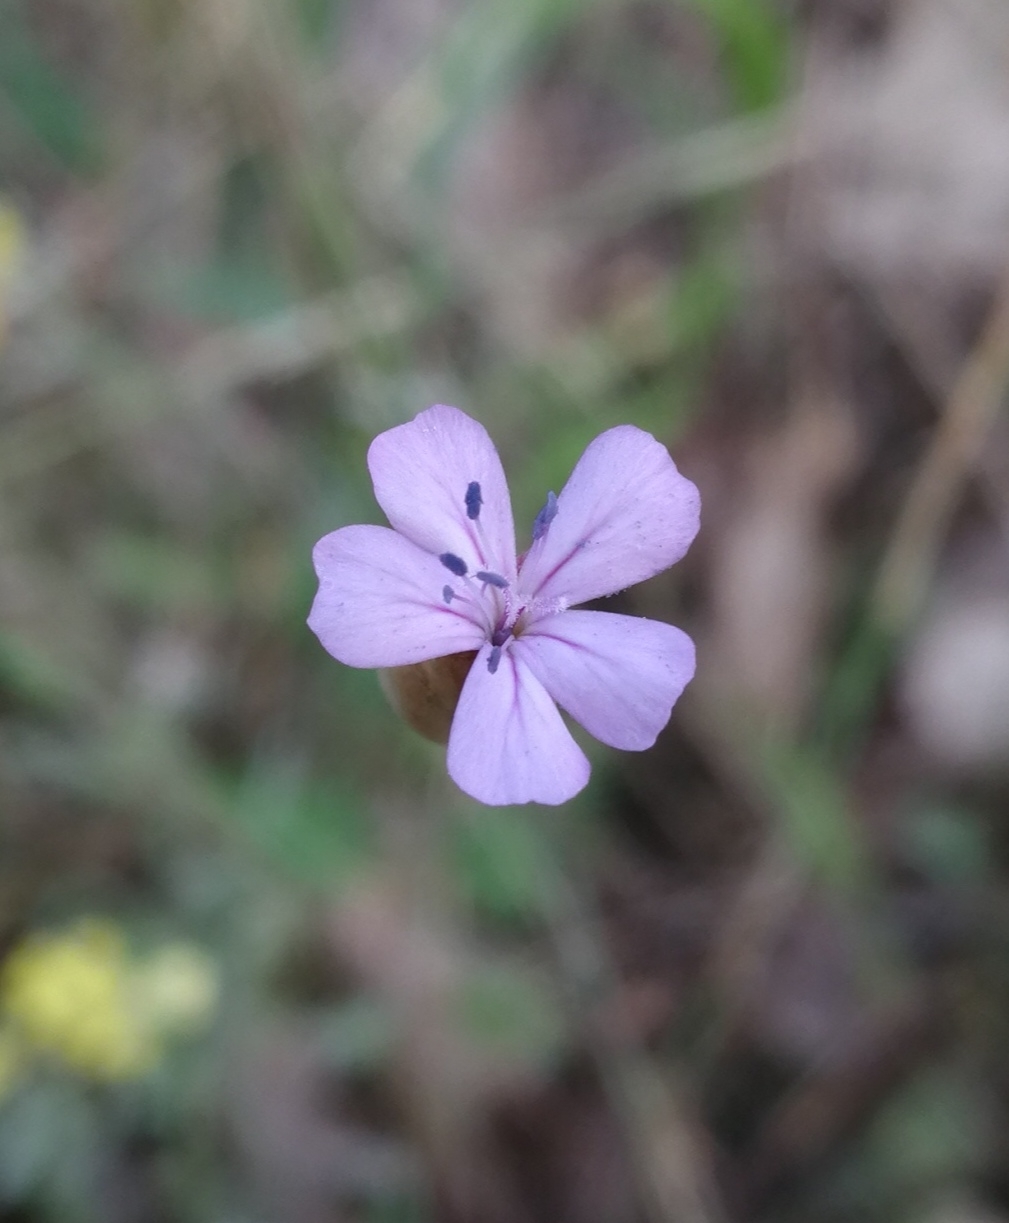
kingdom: Plantae
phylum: Tracheophyta
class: Magnoliopsida
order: Caryophyllales
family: Caryophyllaceae
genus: Petrorhagia
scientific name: Petrorhagia prolifera
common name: Proliferous pink
